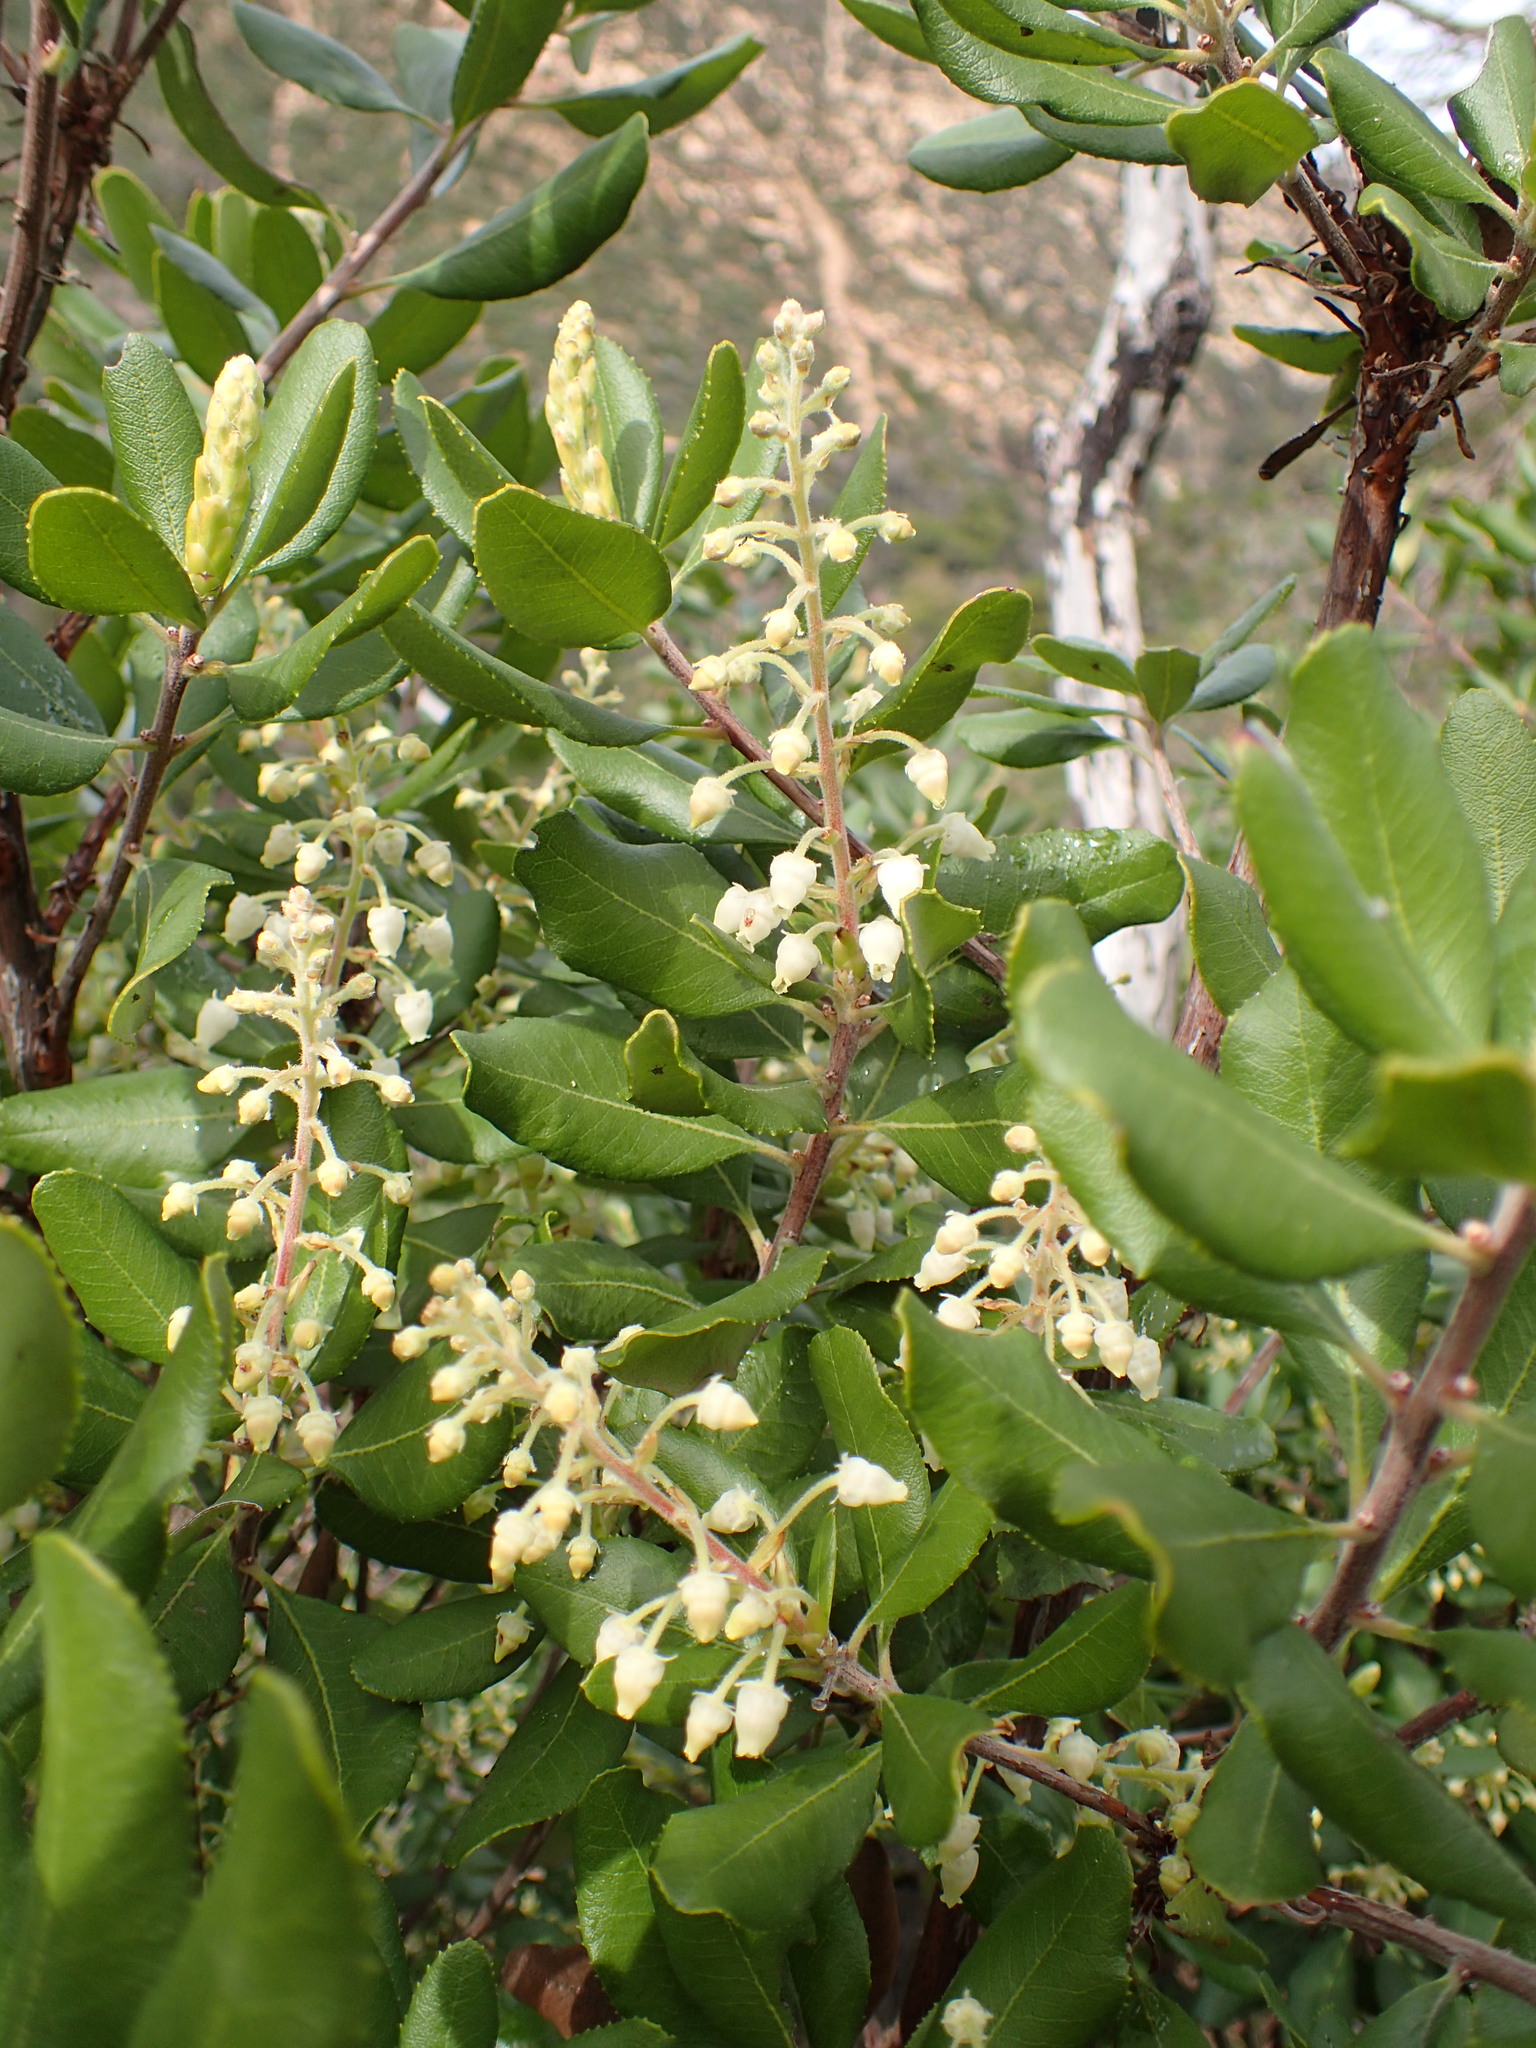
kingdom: Plantae
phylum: Tracheophyta
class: Magnoliopsida
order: Ericales
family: Ericaceae
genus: Comarostaphylis
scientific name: Comarostaphylis diversifolia
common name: Summer-holly
